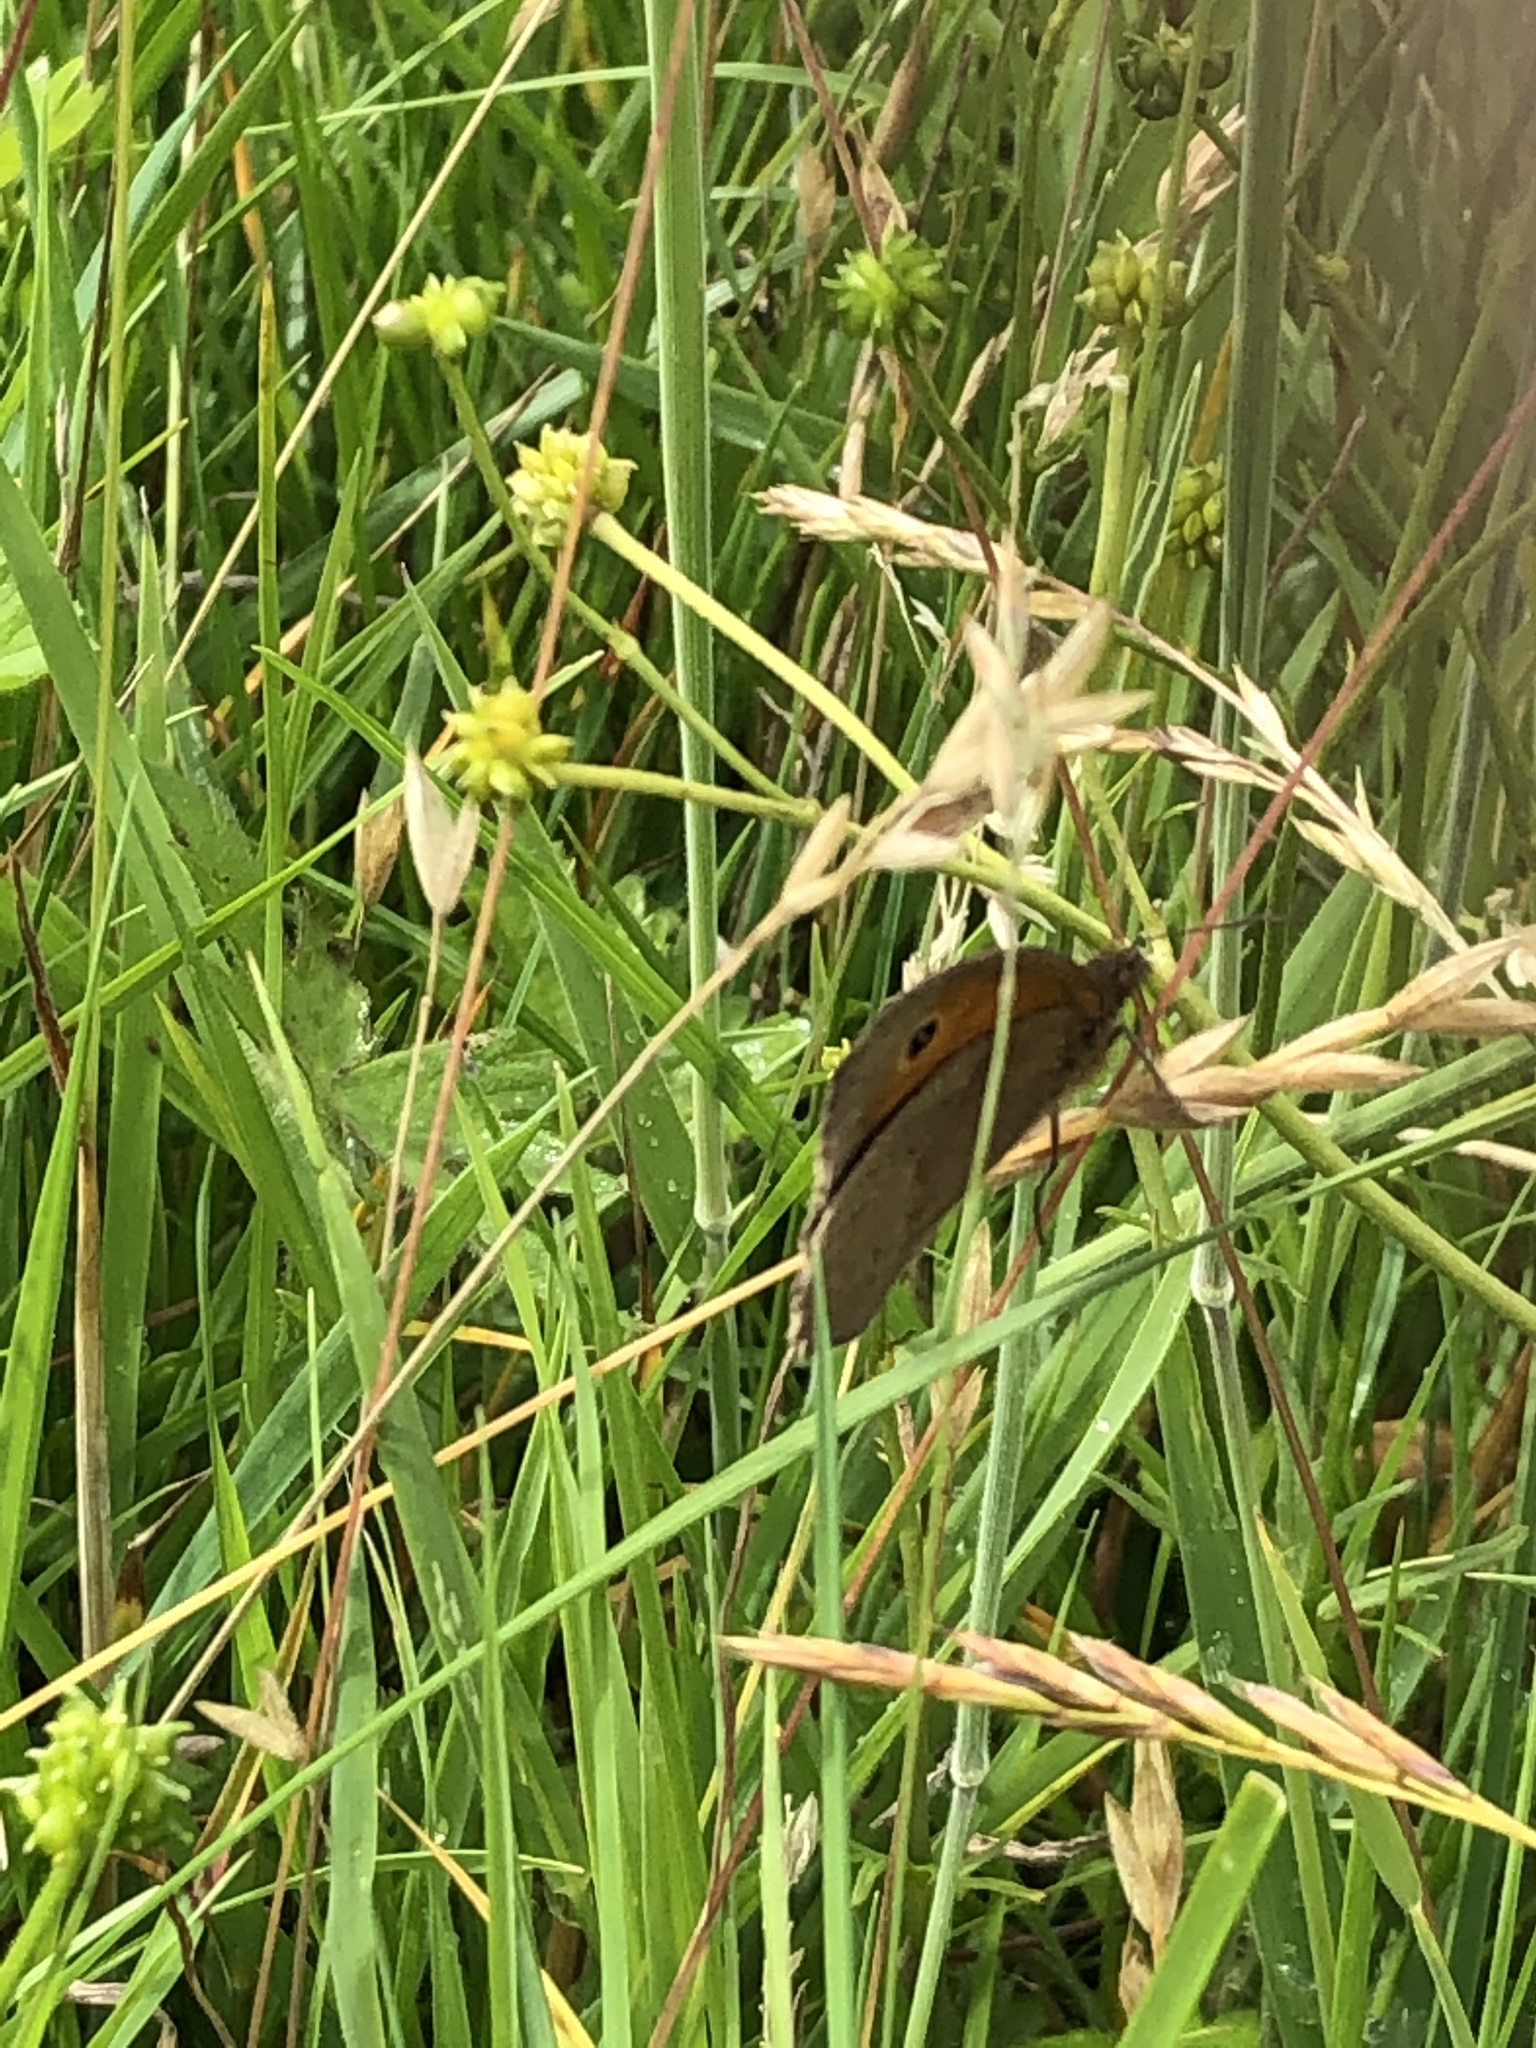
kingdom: Animalia
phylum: Arthropoda
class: Insecta
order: Lepidoptera
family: Nymphalidae
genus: Maniola
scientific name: Maniola jurtina
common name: Meadow brown
